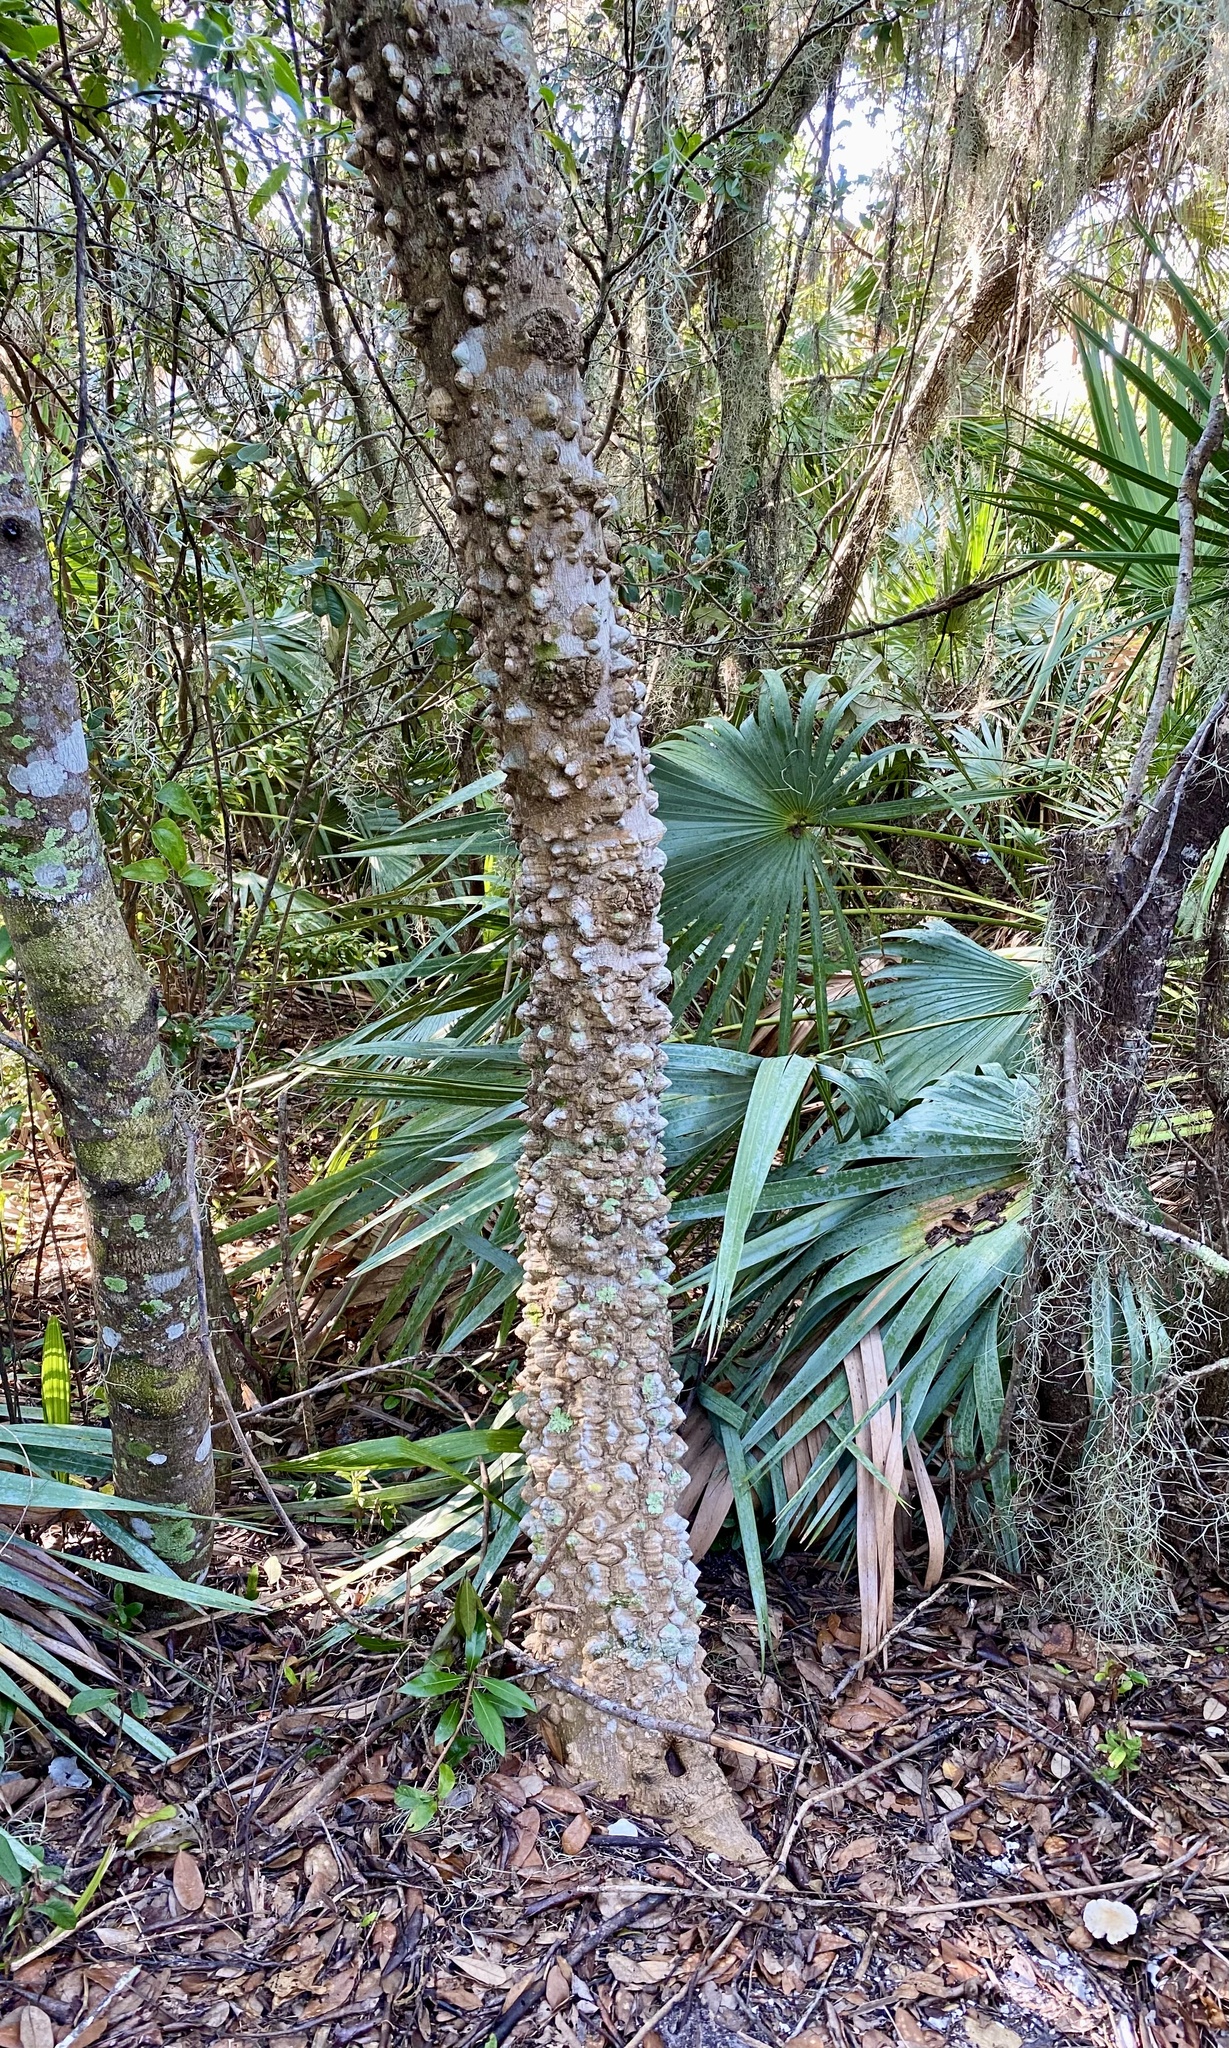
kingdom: Plantae
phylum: Tracheophyta
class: Magnoliopsida
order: Sapindales
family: Rutaceae
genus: Zanthoxylum
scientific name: Zanthoxylum clava-herculis
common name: Hercules'-club
